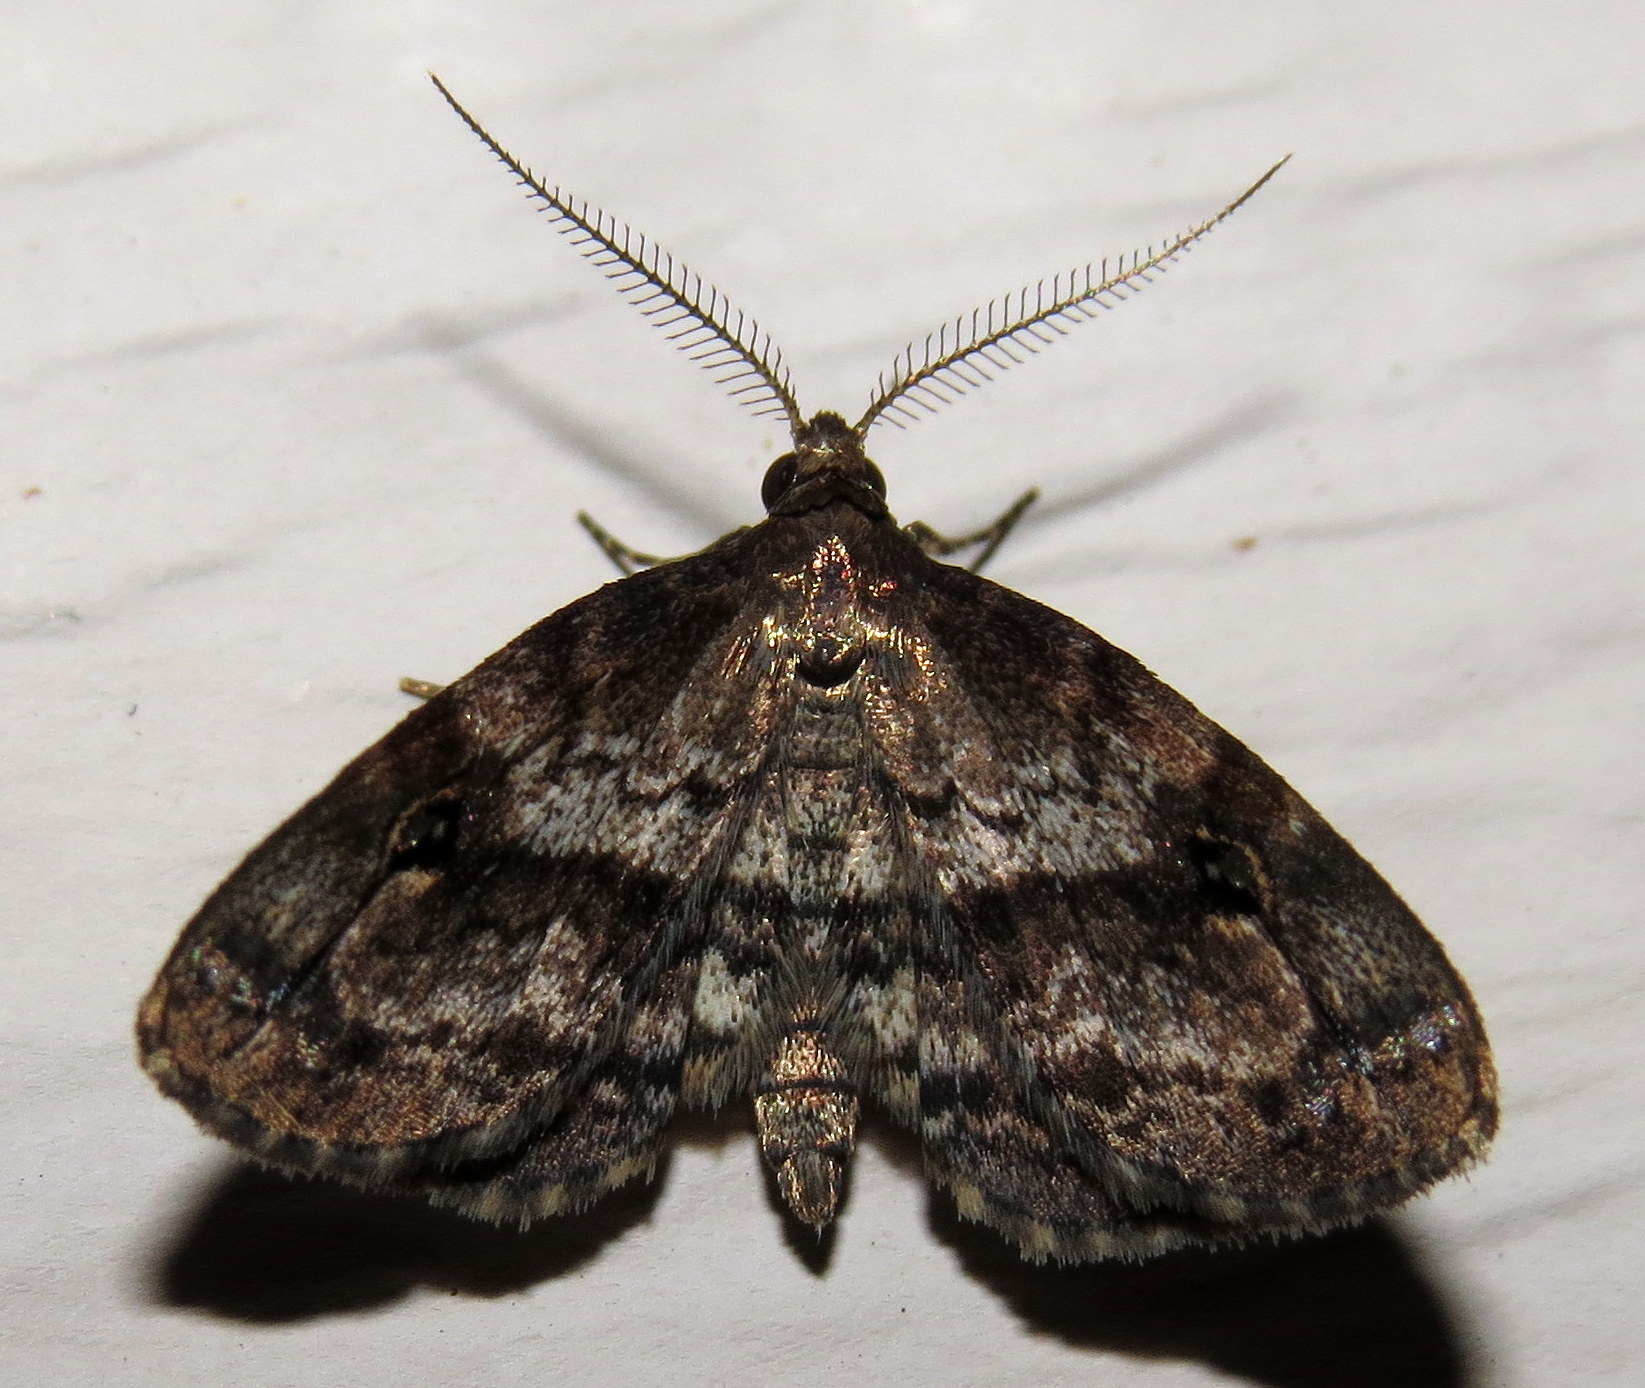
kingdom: Animalia
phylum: Arthropoda
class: Insecta
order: Lepidoptera
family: Erebidae
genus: Melanomma
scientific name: Melanomma auricinctaria
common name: Gold-lined melanomma moth
